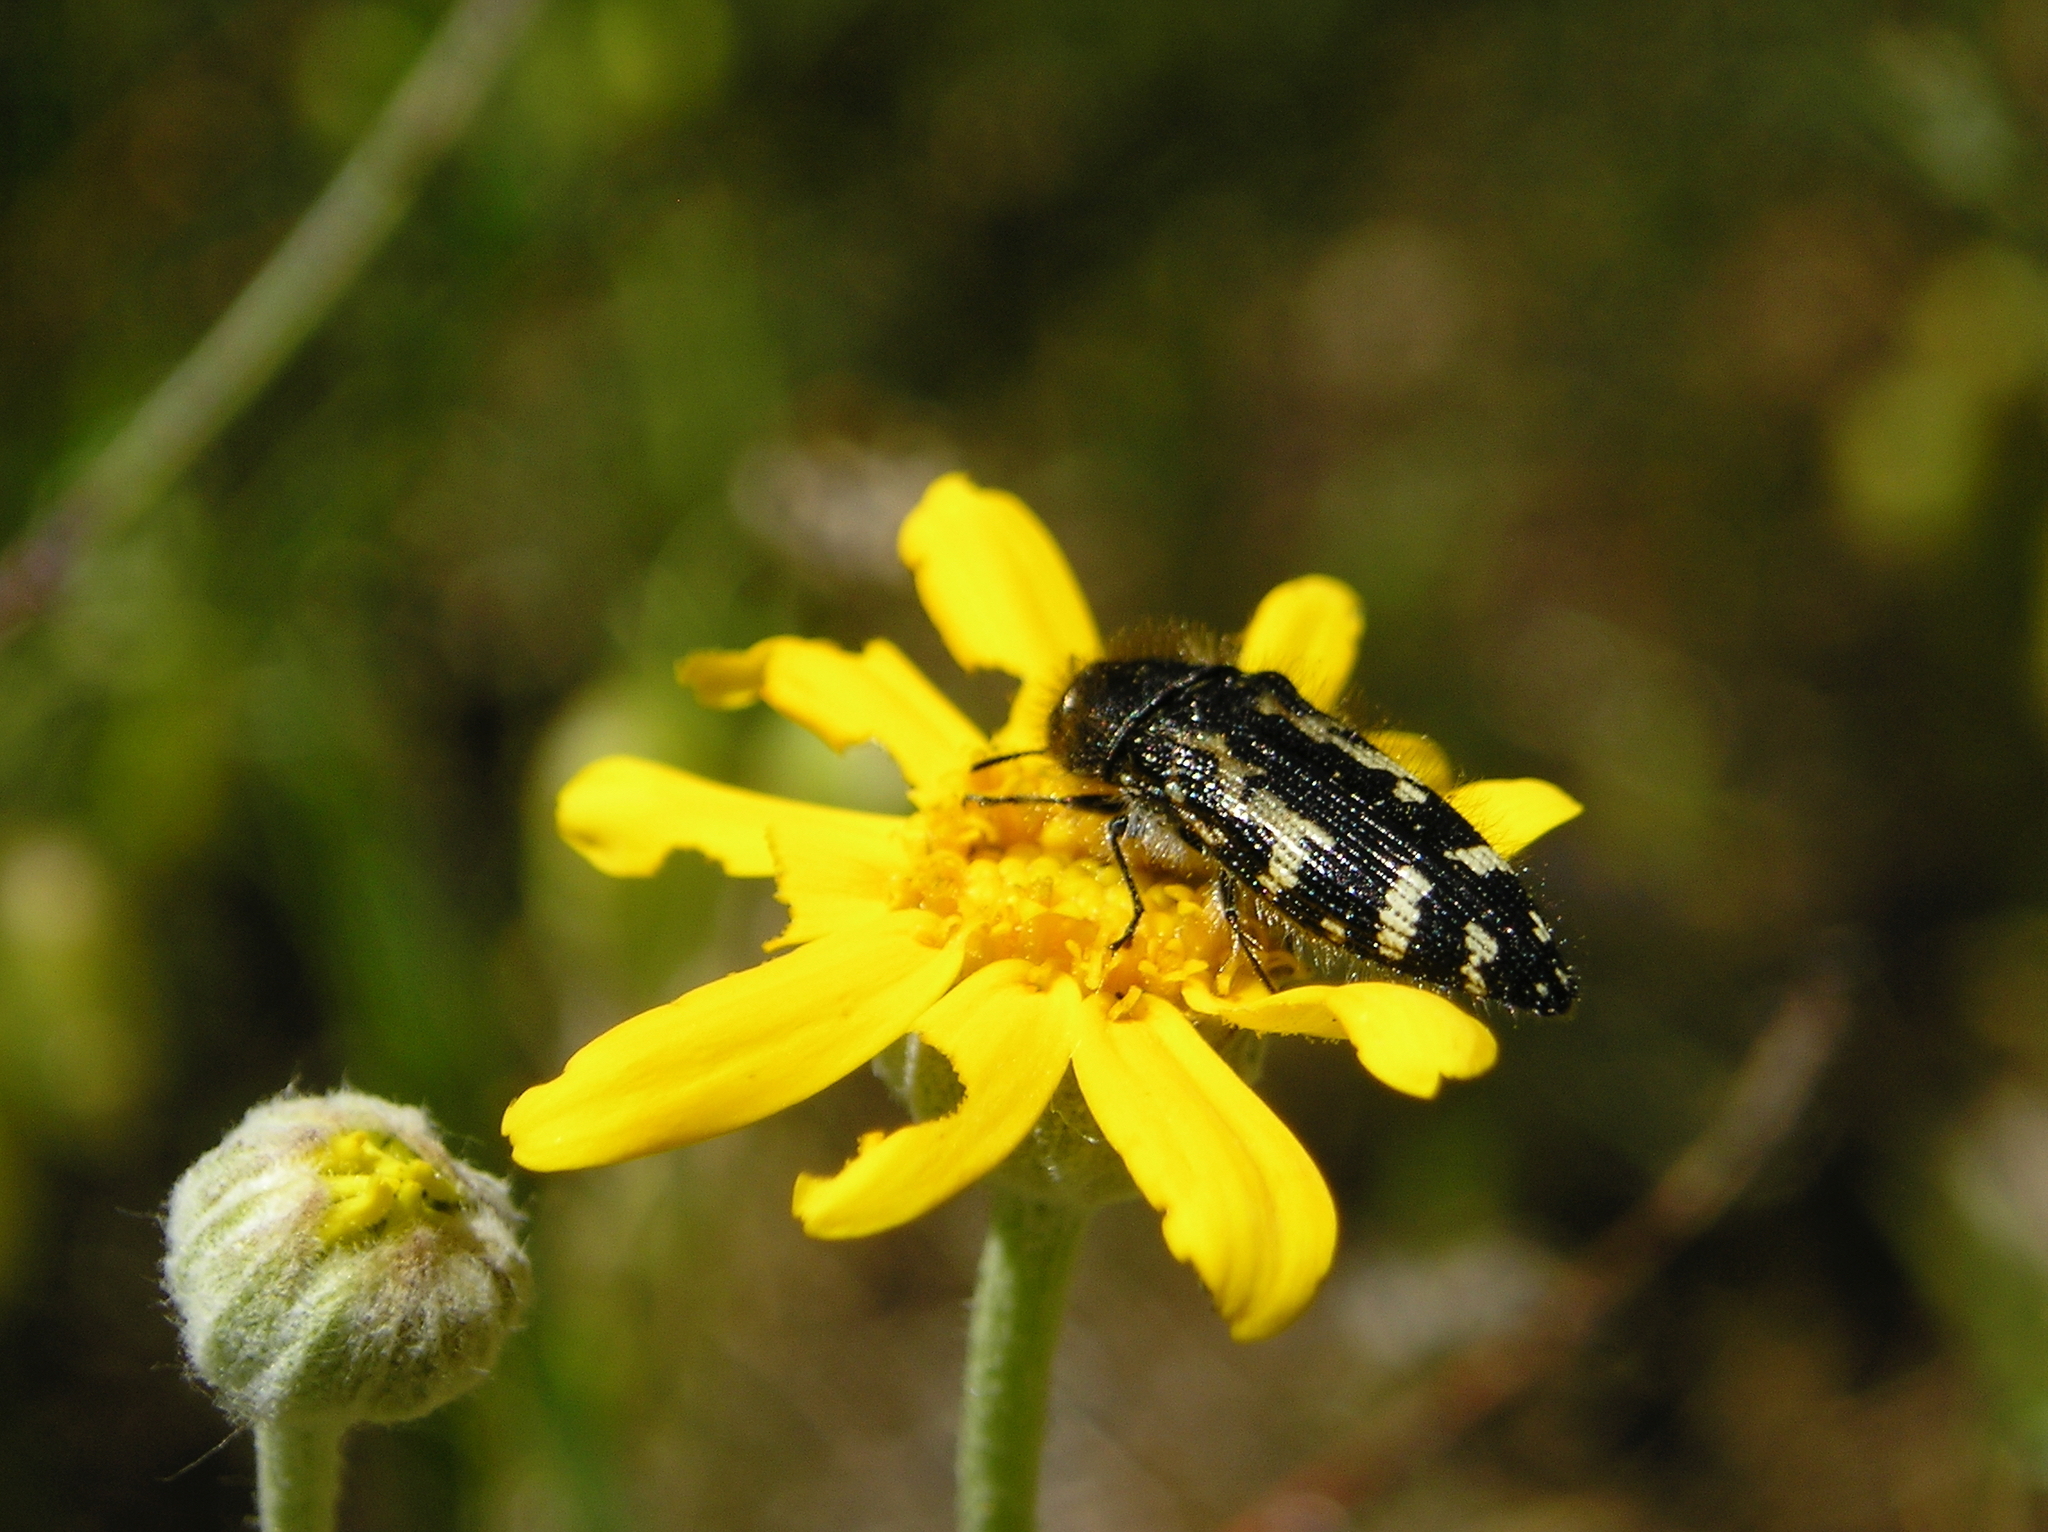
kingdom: Animalia
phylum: Arthropoda
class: Insecta
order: Coleoptera
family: Buprestidae
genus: Acmaeodera
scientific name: Acmaeodera hepburnii
